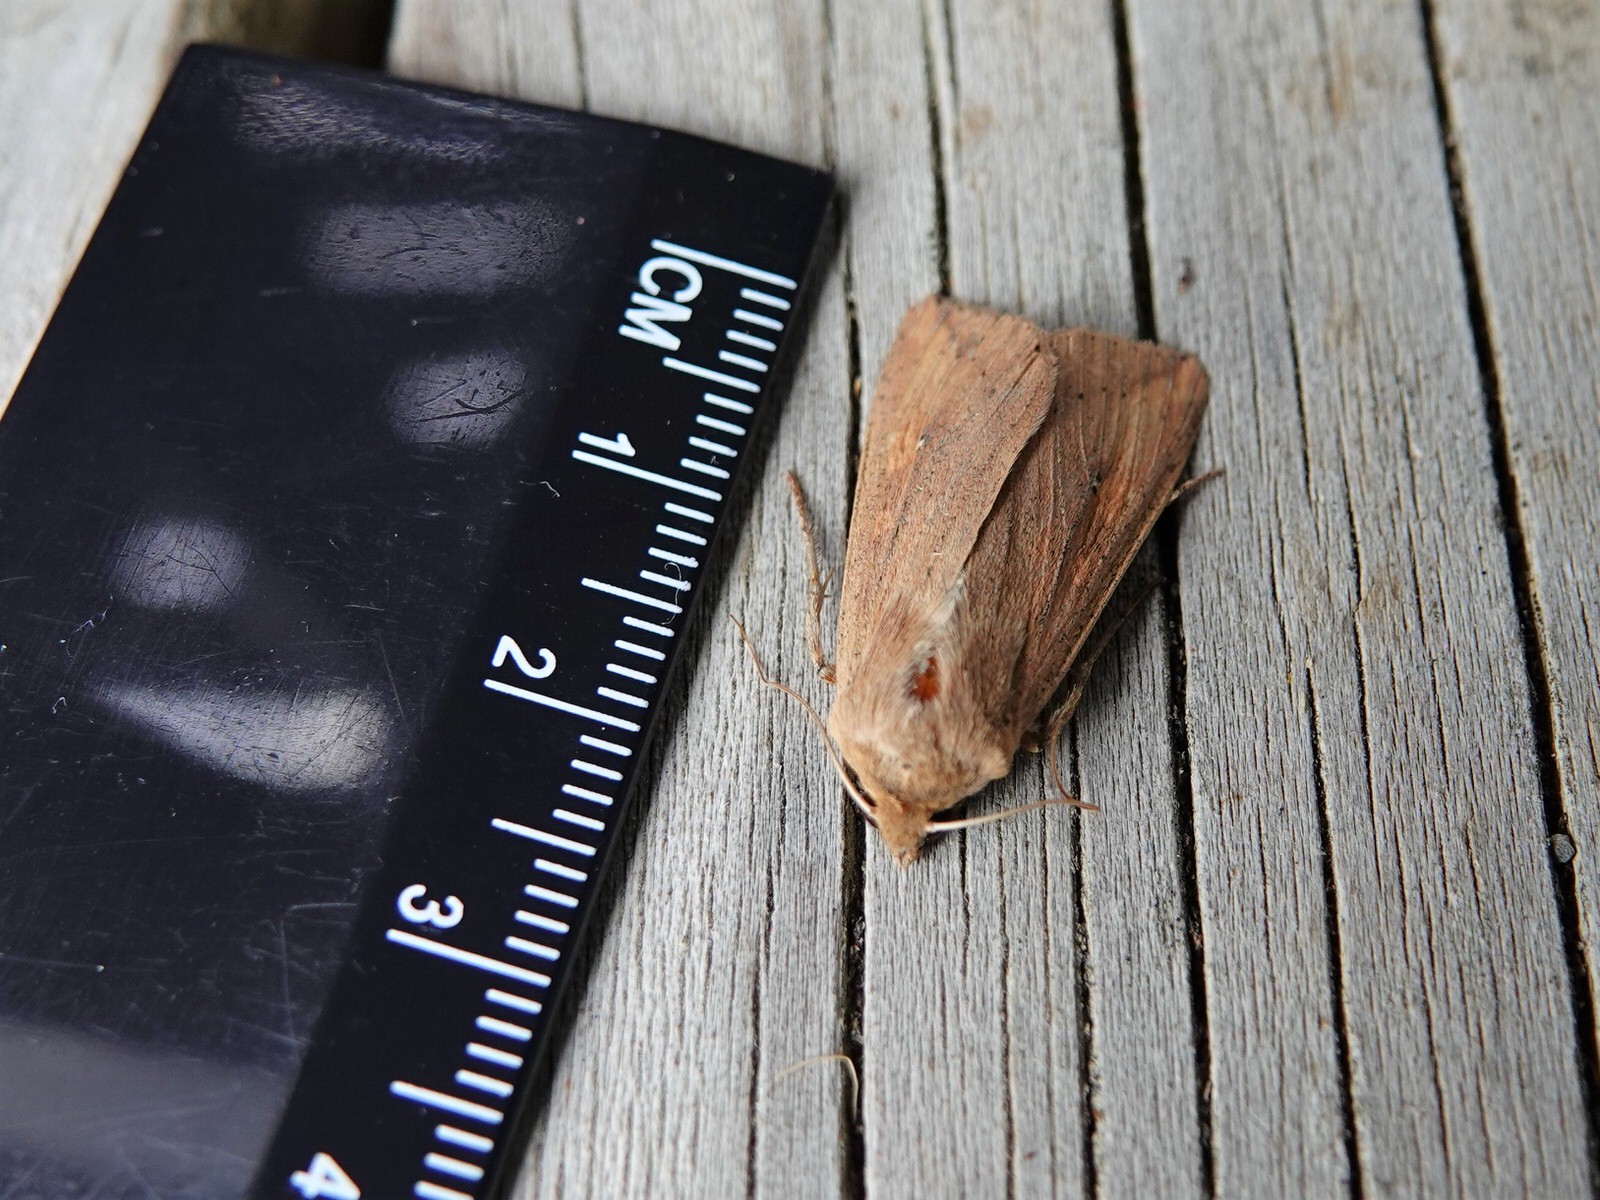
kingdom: Animalia
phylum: Arthropoda
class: Insecta
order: Lepidoptera
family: Noctuidae
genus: Mythimna
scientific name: Mythimna separata
